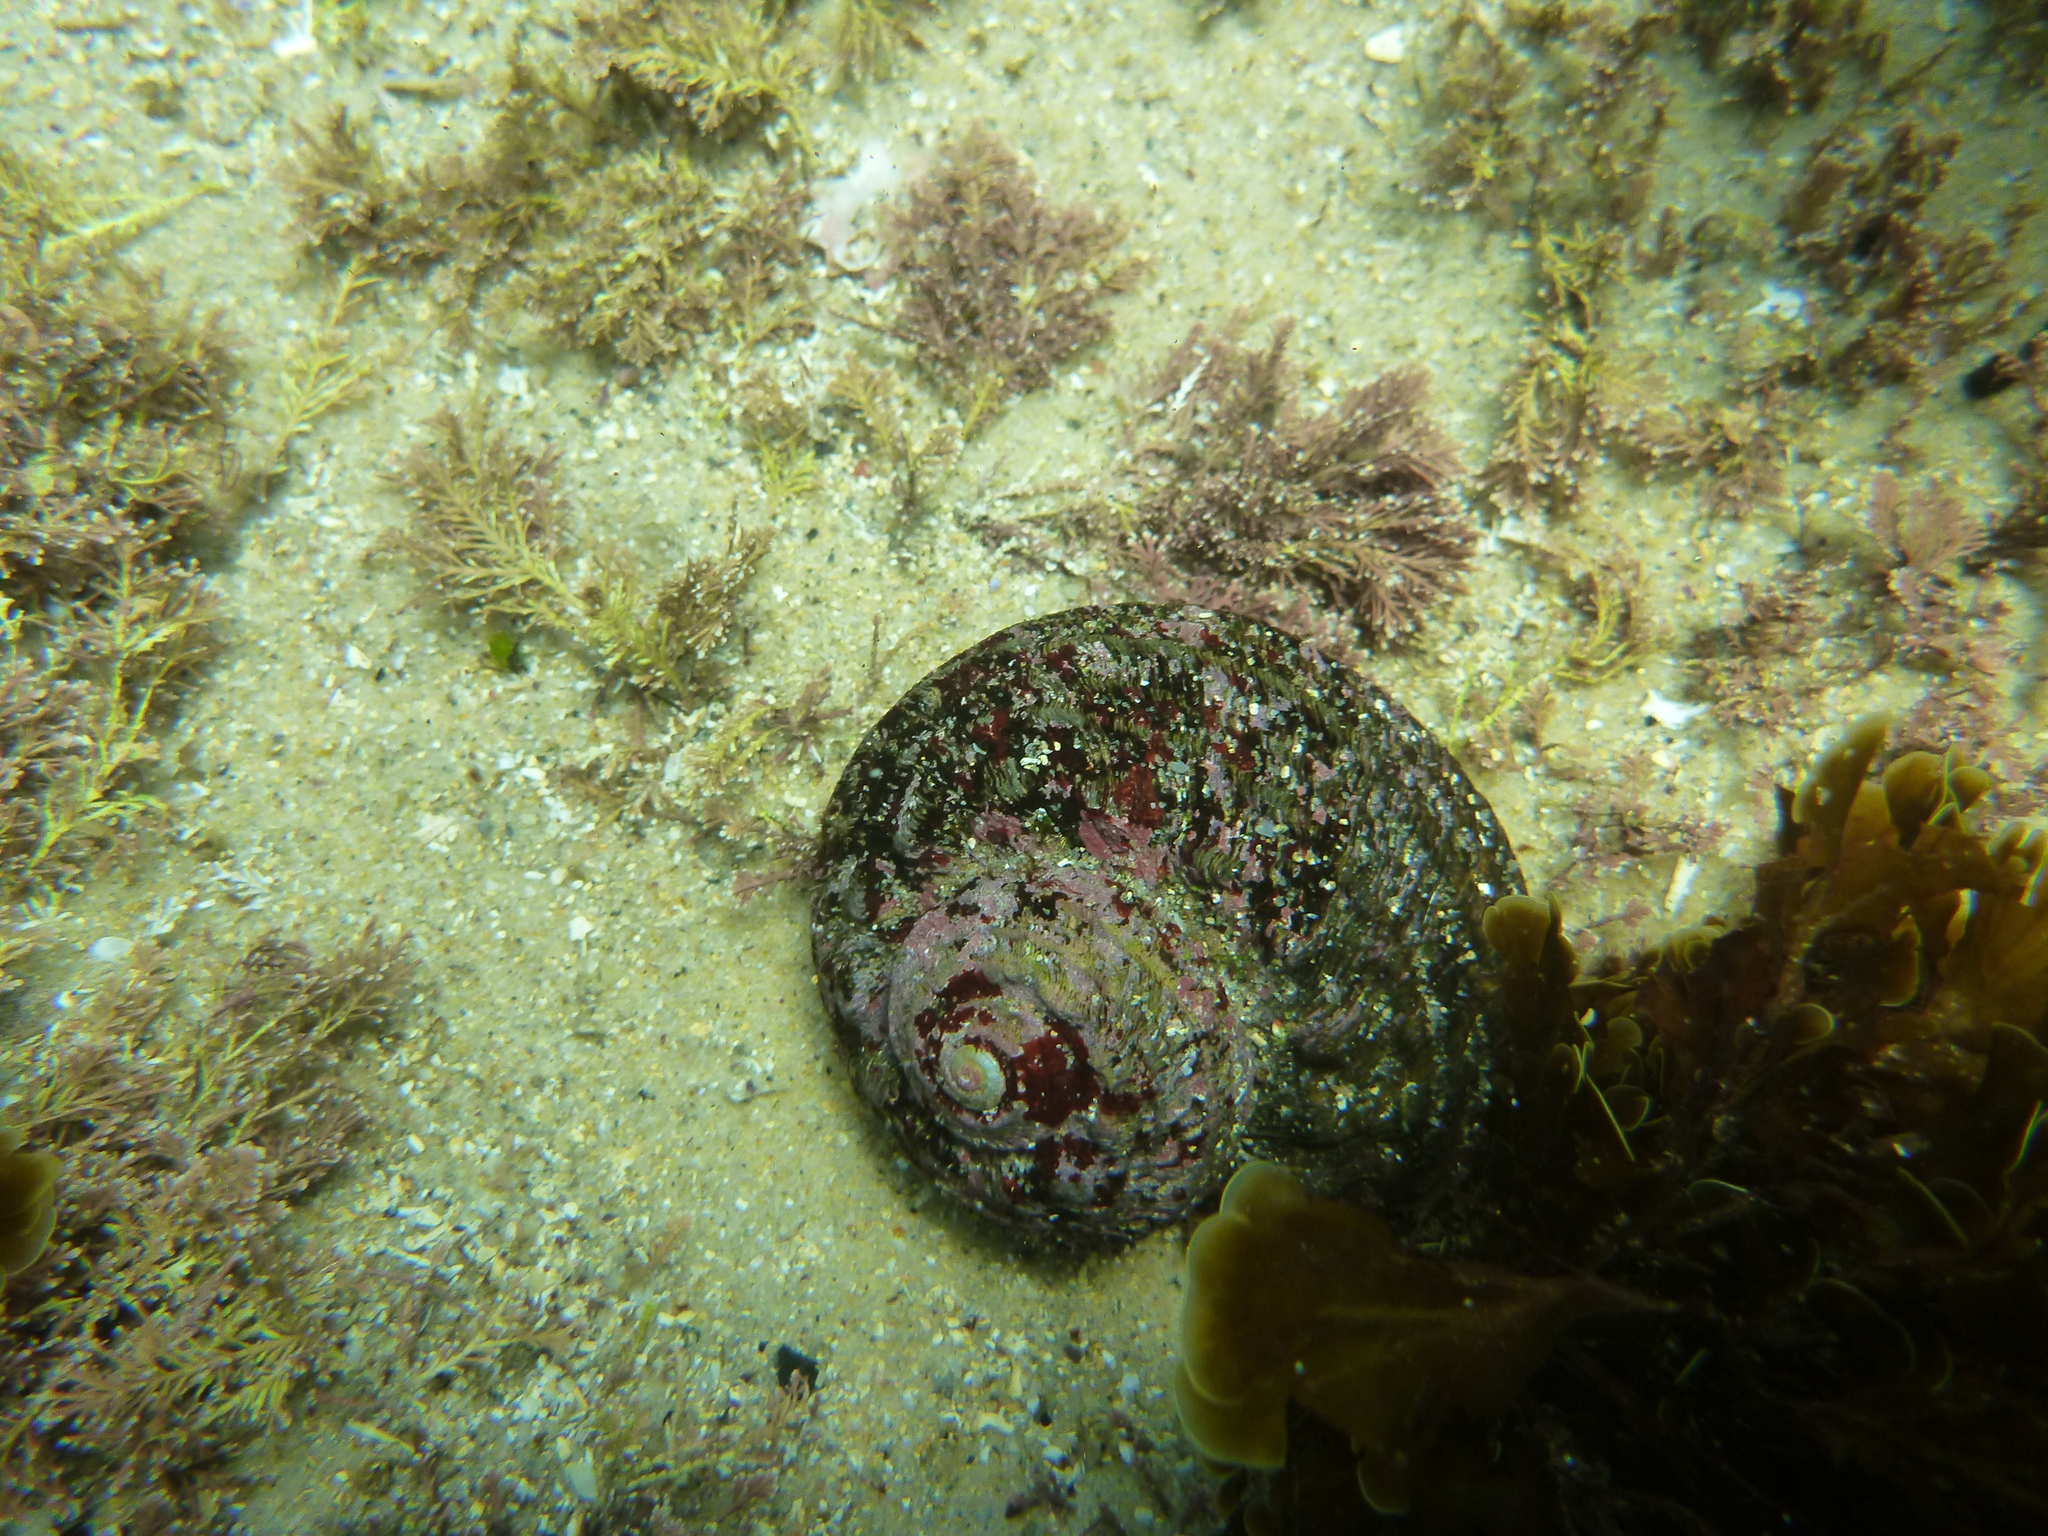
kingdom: Animalia
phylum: Mollusca
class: Gastropoda
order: Trochida
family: Turbinidae
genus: Lunella
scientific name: Lunella torquata
